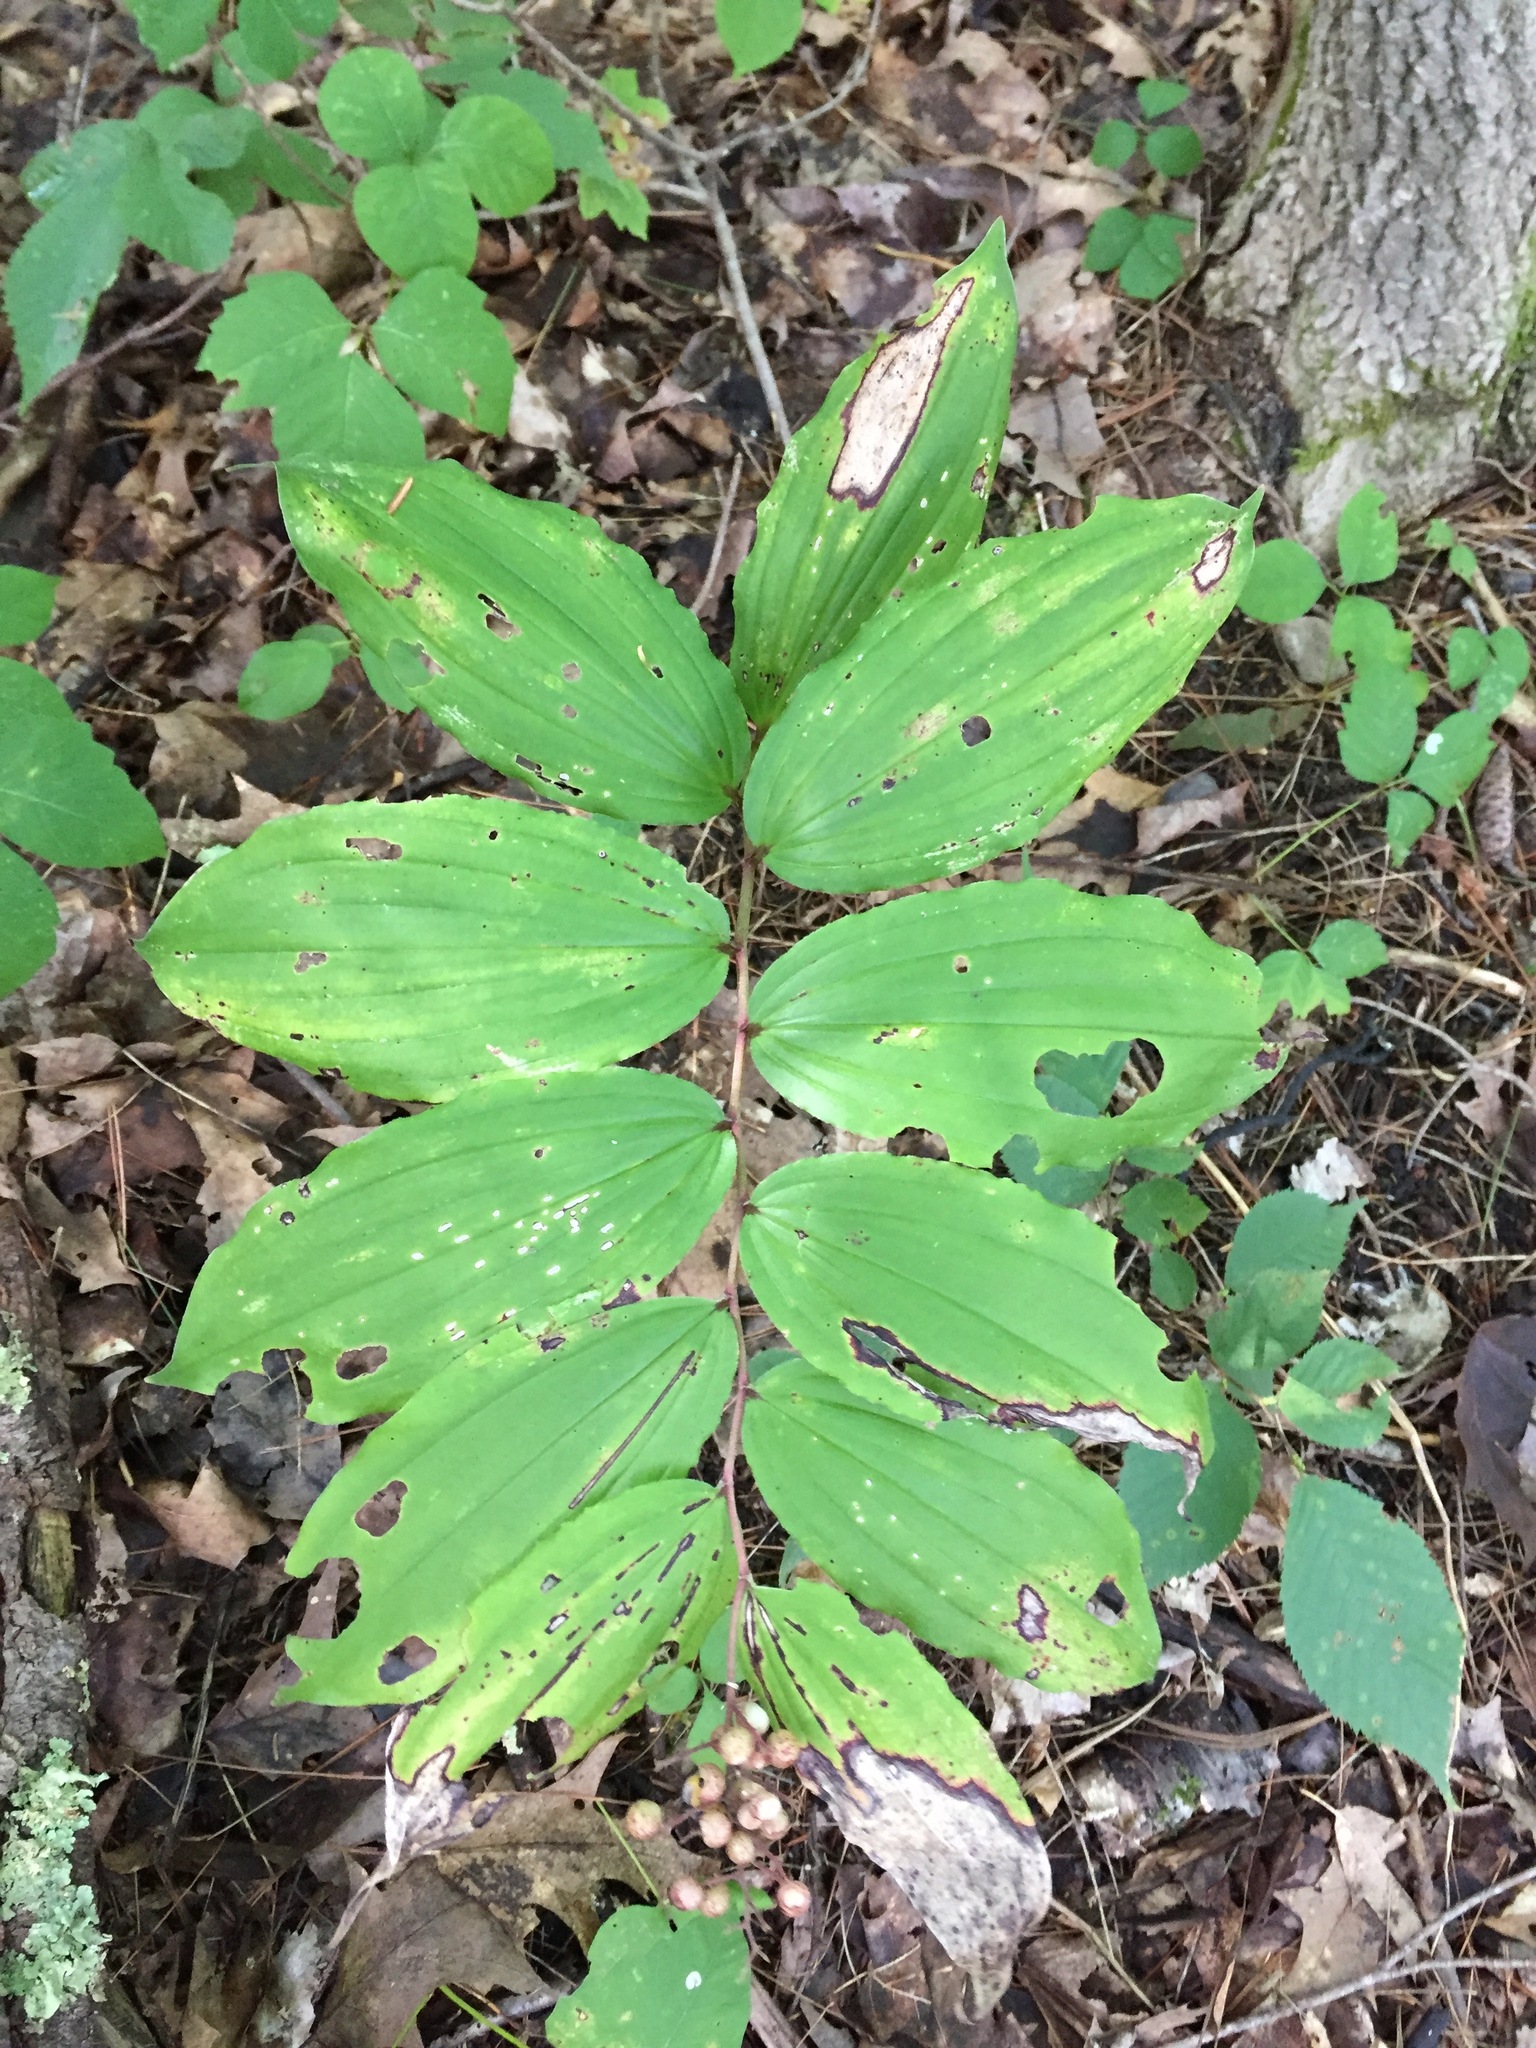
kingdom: Plantae
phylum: Tracheophyta
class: Liliopsida
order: Asparagales
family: Asparagaceae
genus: Maianthemum
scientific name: Maianthemum racemosum
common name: False spikenard
